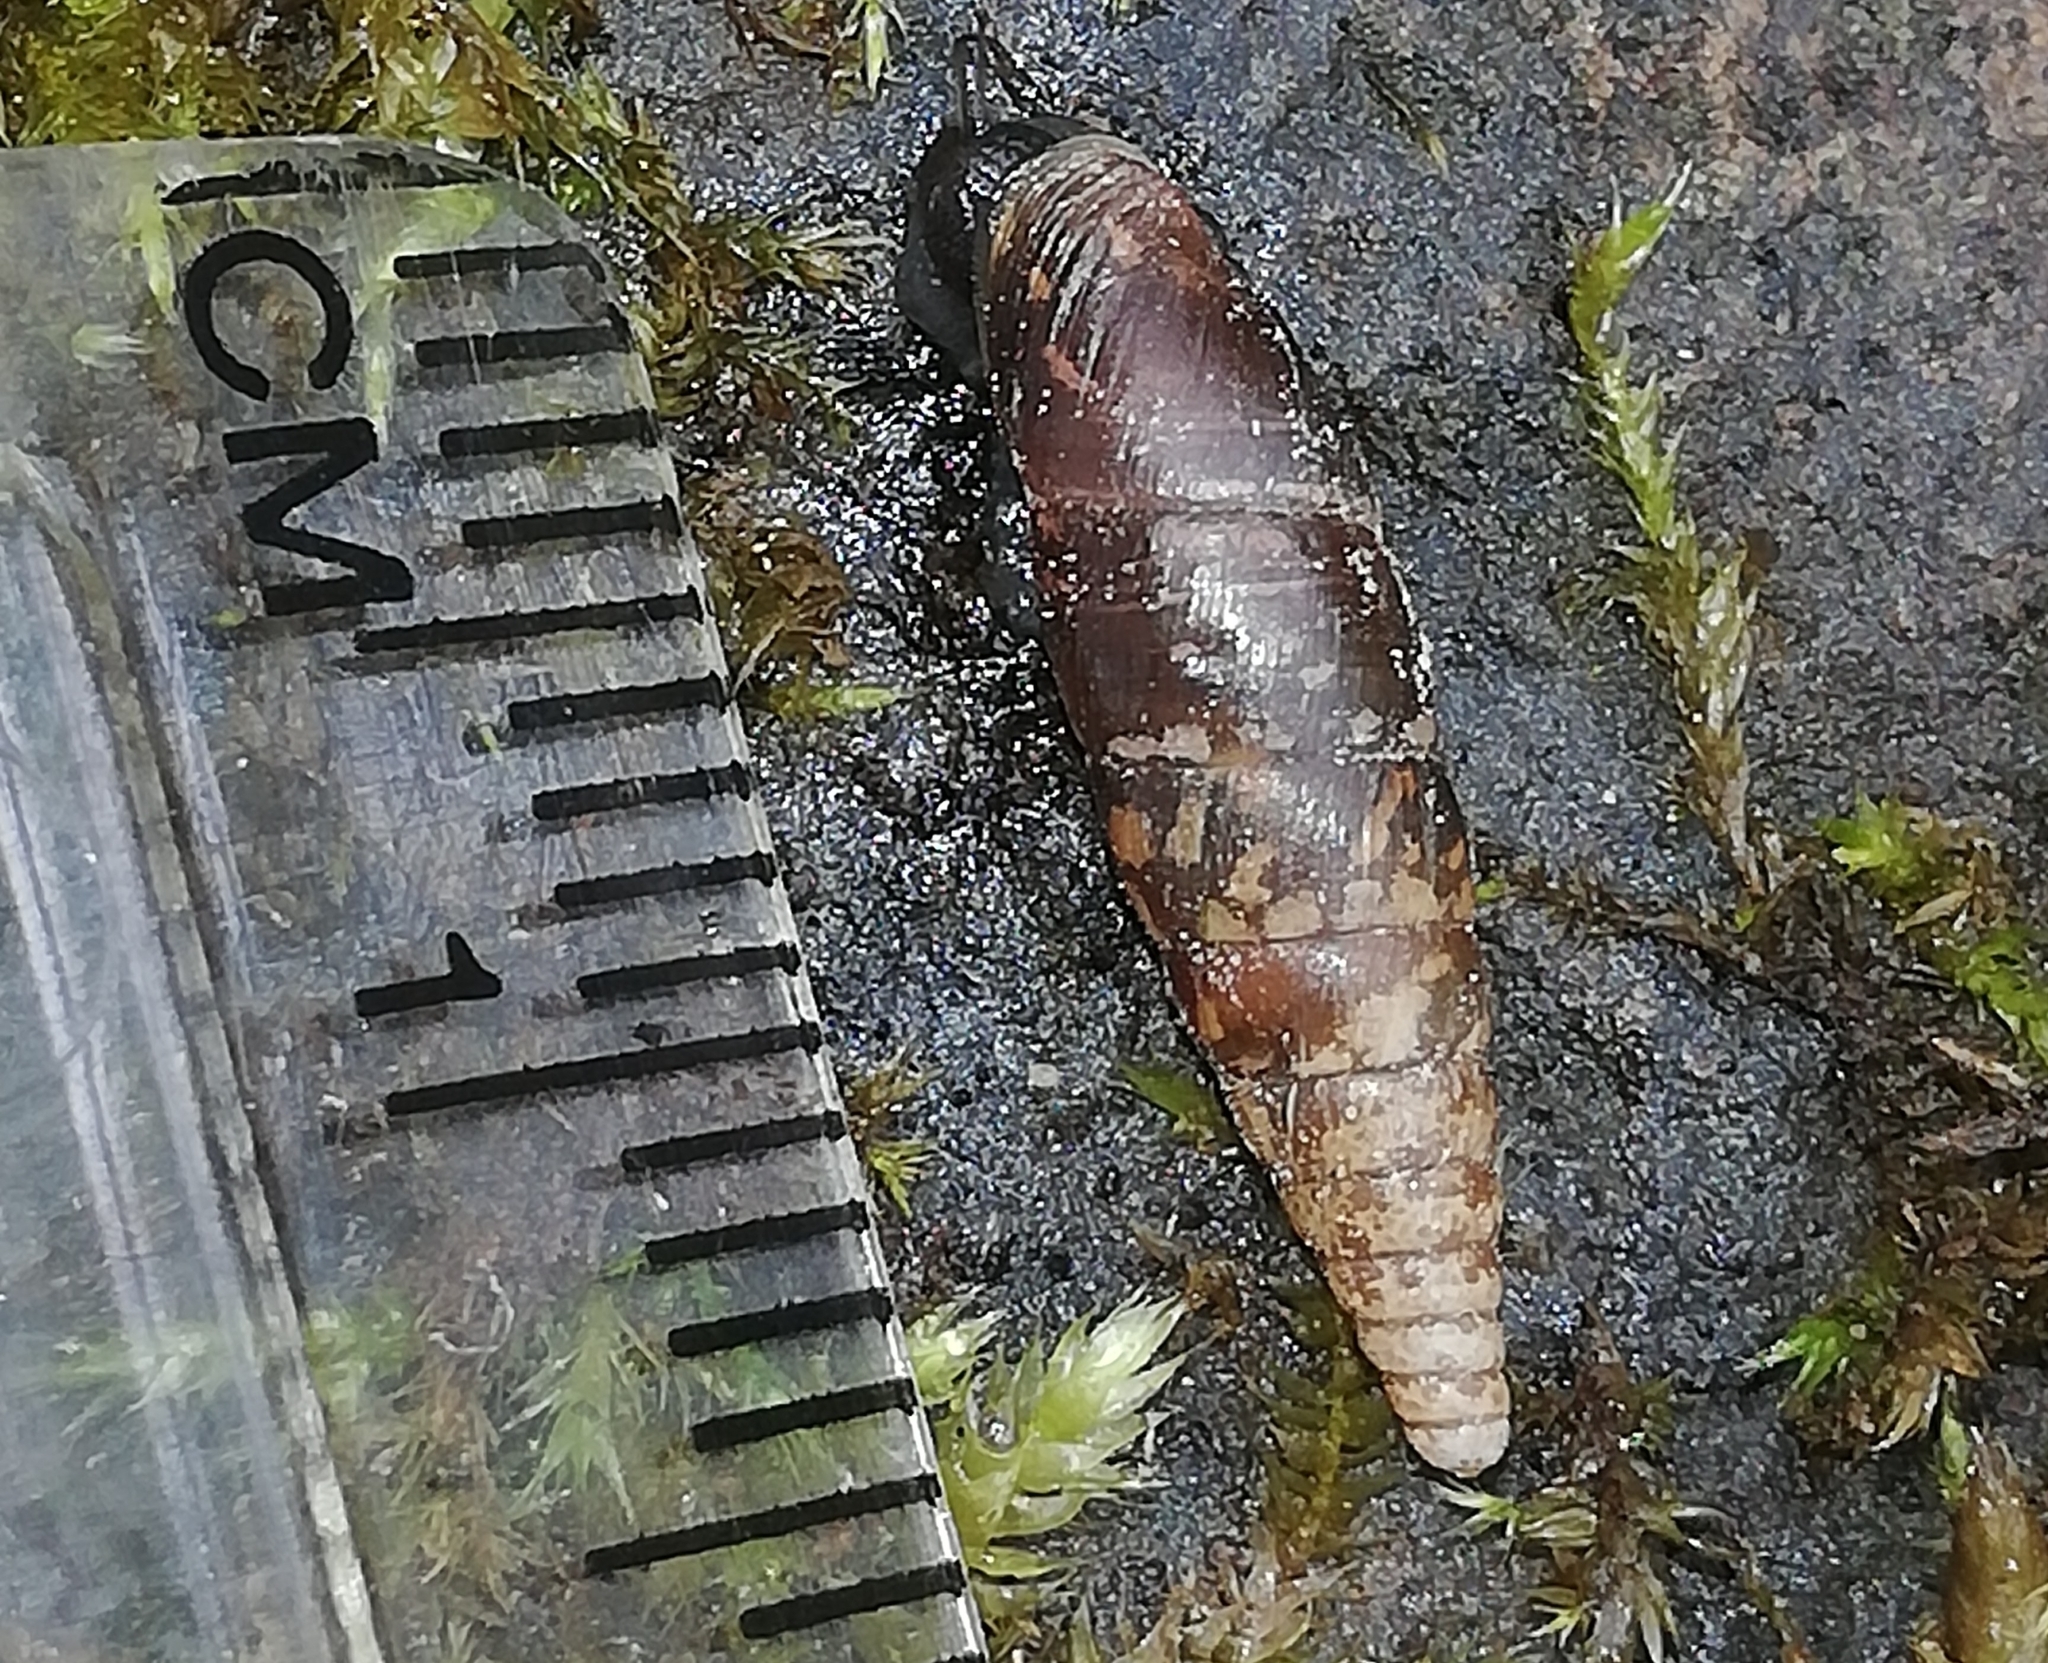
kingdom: Animalia
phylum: Mollusca
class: Gastropoda
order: Stylommatophora
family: Clausiliidae
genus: Cochlodina
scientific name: Cochlodina laminata
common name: Plaited door snail
